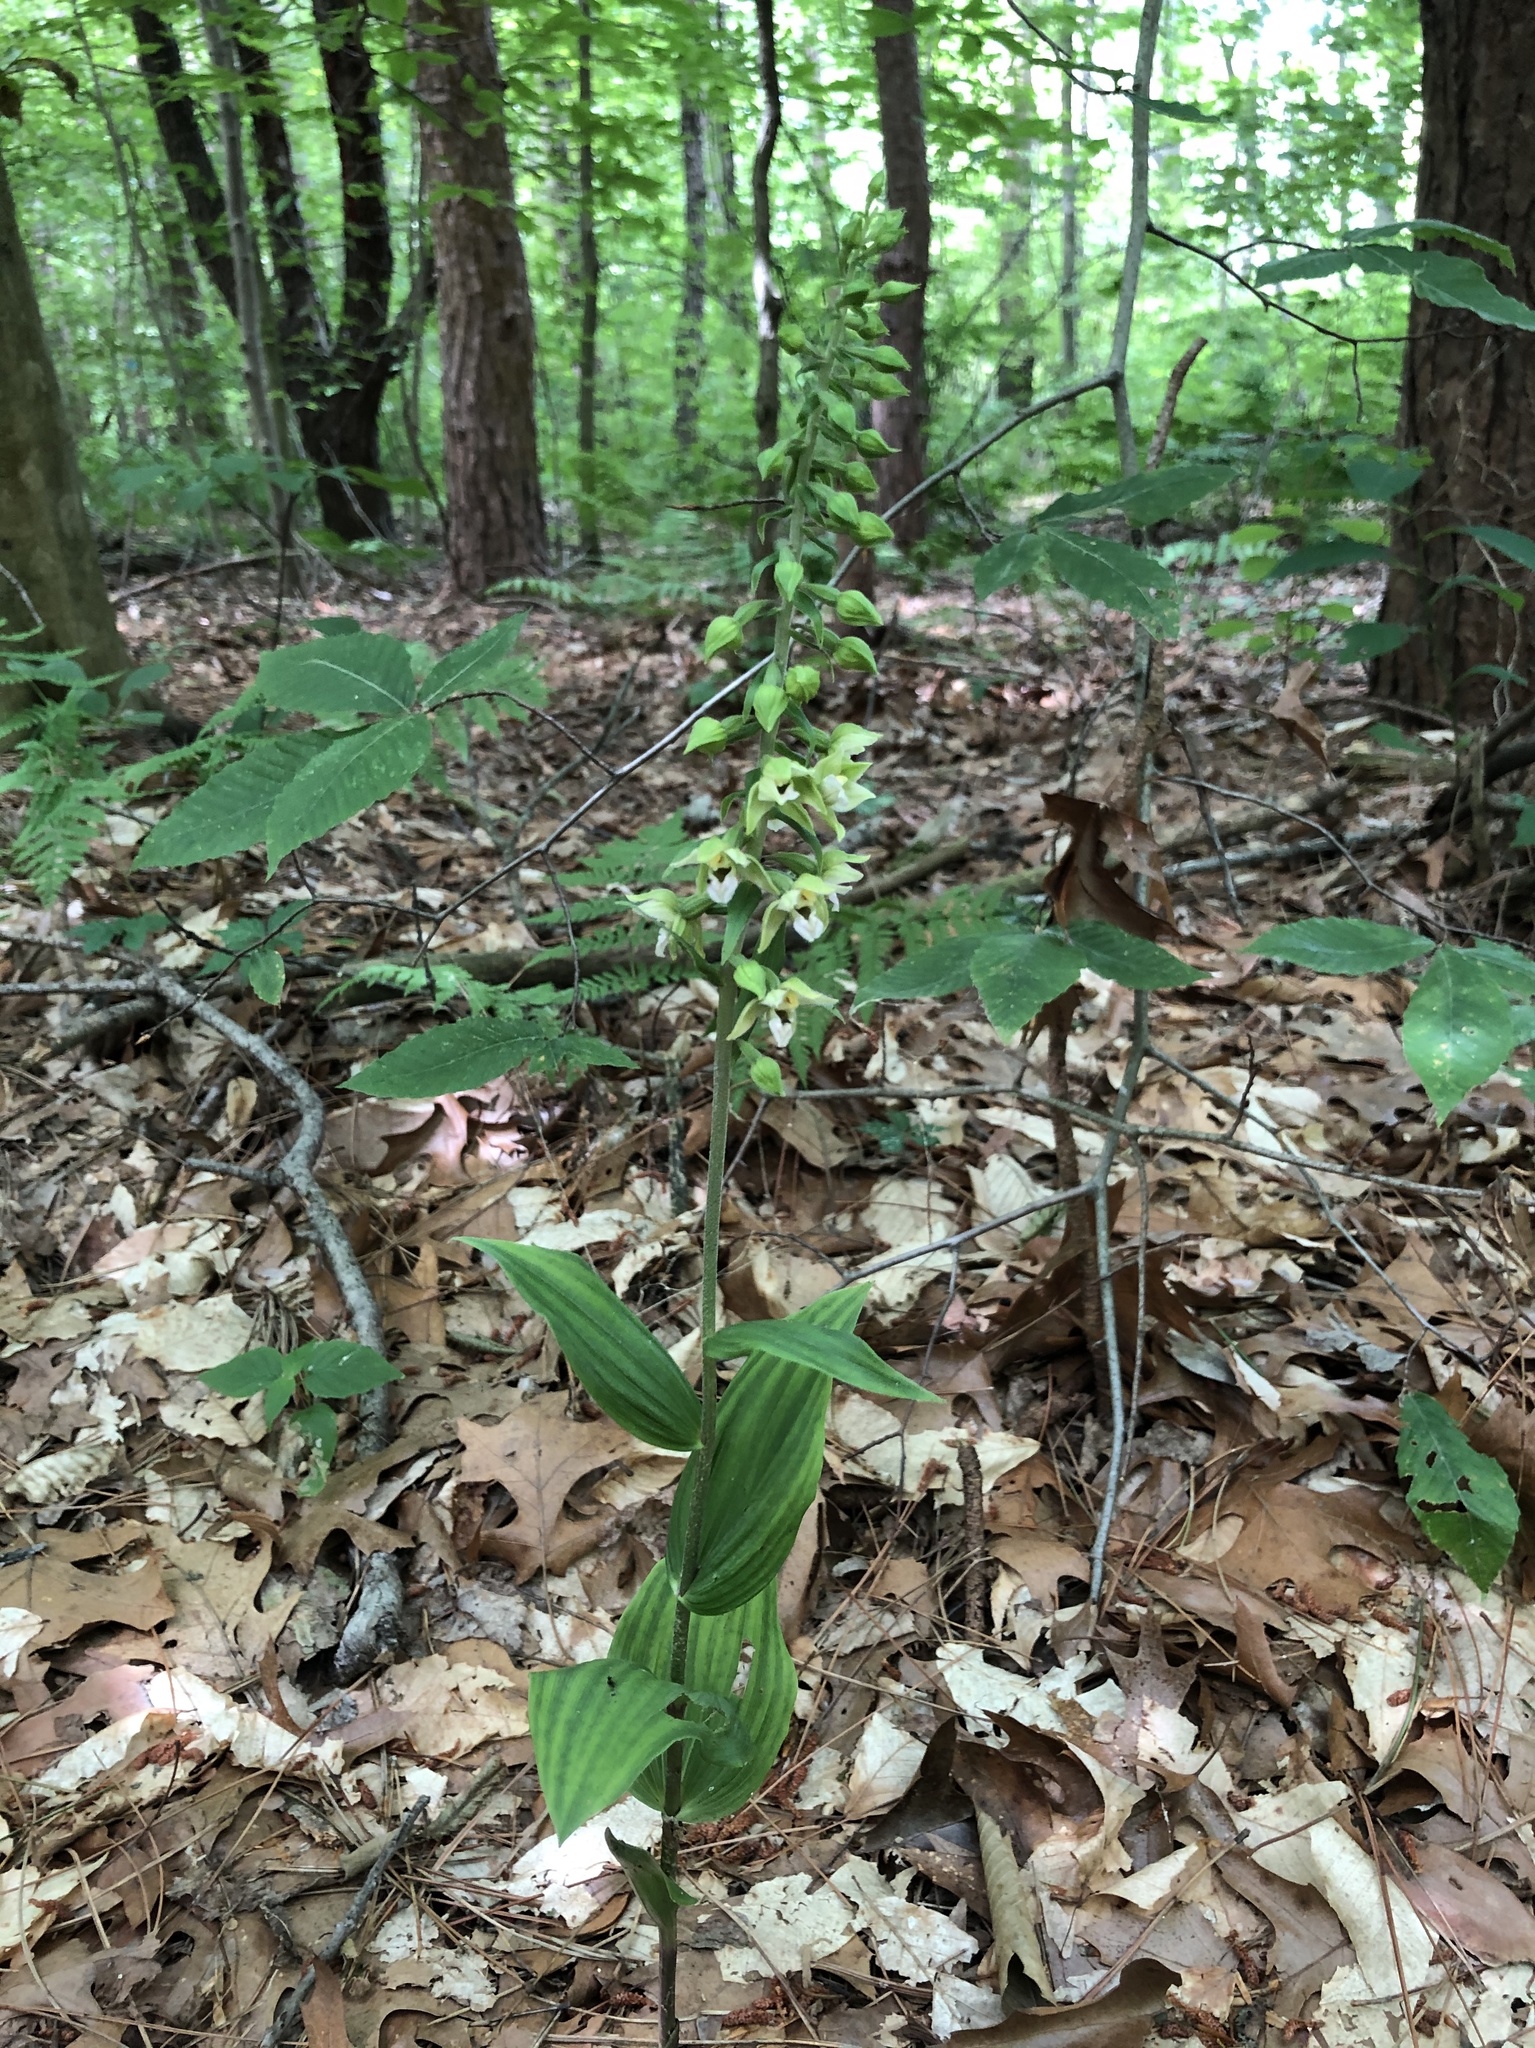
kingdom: Plantae
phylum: Tracheophyta
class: Liliopsida
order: Asparagales
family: Orchidaceae
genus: Epipactis
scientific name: Epipactis helleborine
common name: Broad-leaved helleborine
